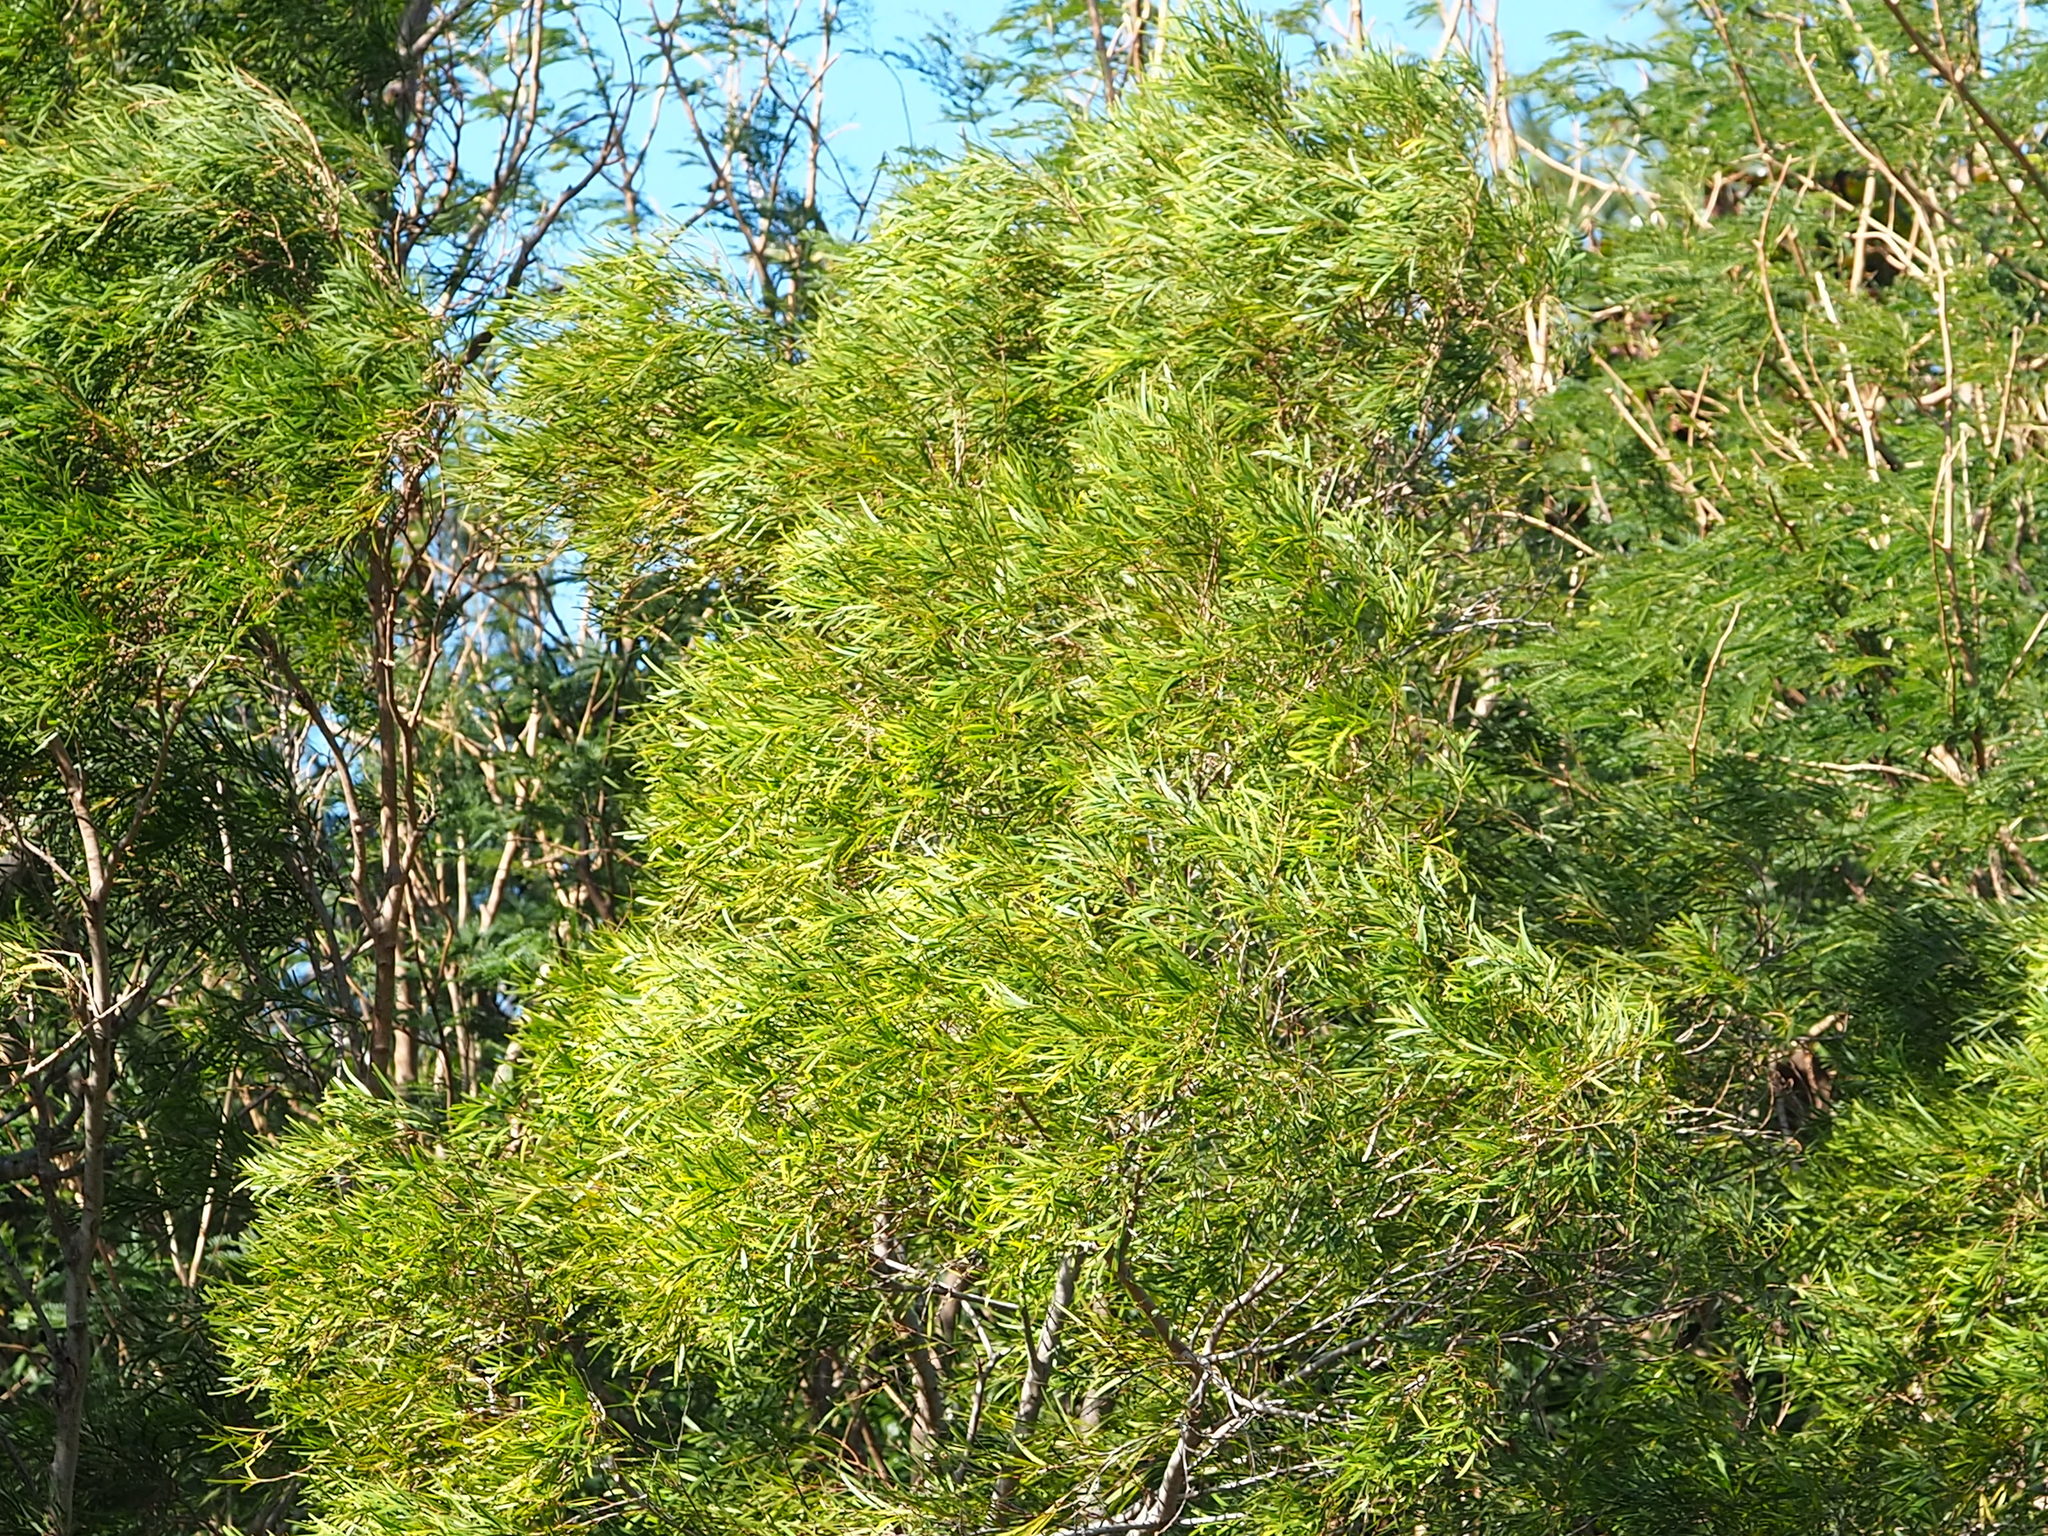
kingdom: Plantae
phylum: Tracheophyta
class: Magnoliopsida
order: Fabales
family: Fabaceae
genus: Acacia
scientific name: Acacia confusa
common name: Formosan koa
